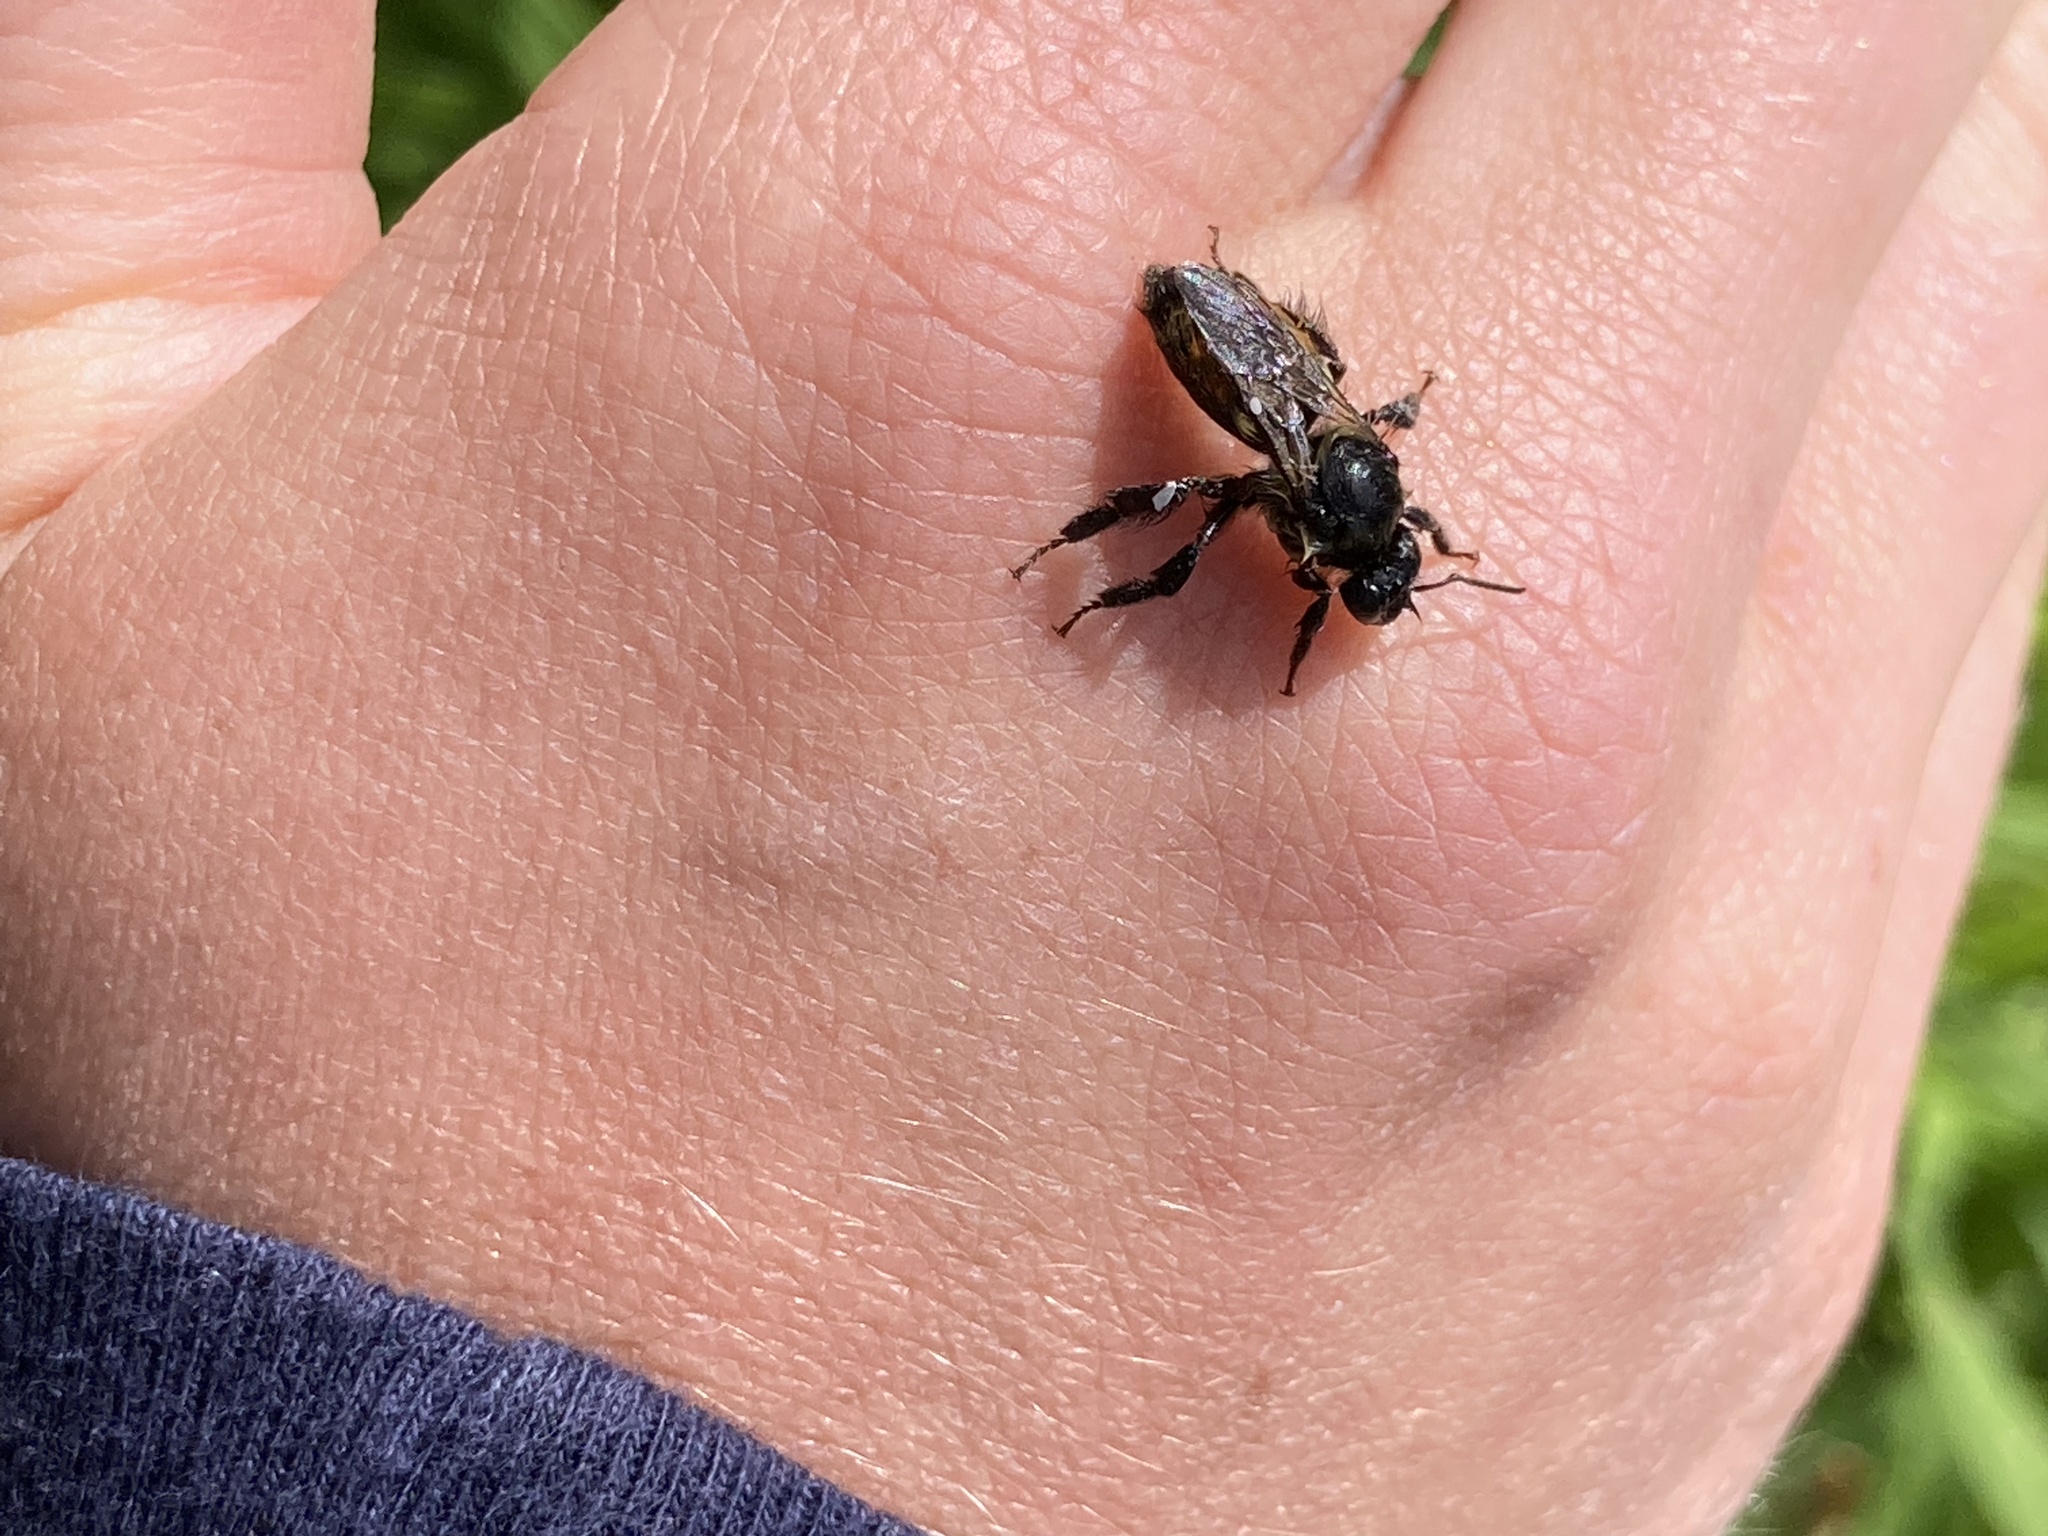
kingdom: Animalia
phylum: Arthropoda
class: Insecta
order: Hymenoptera
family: Apidae
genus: Bombus
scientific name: Bombus ternarius
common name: Tri-colored bumble bee
